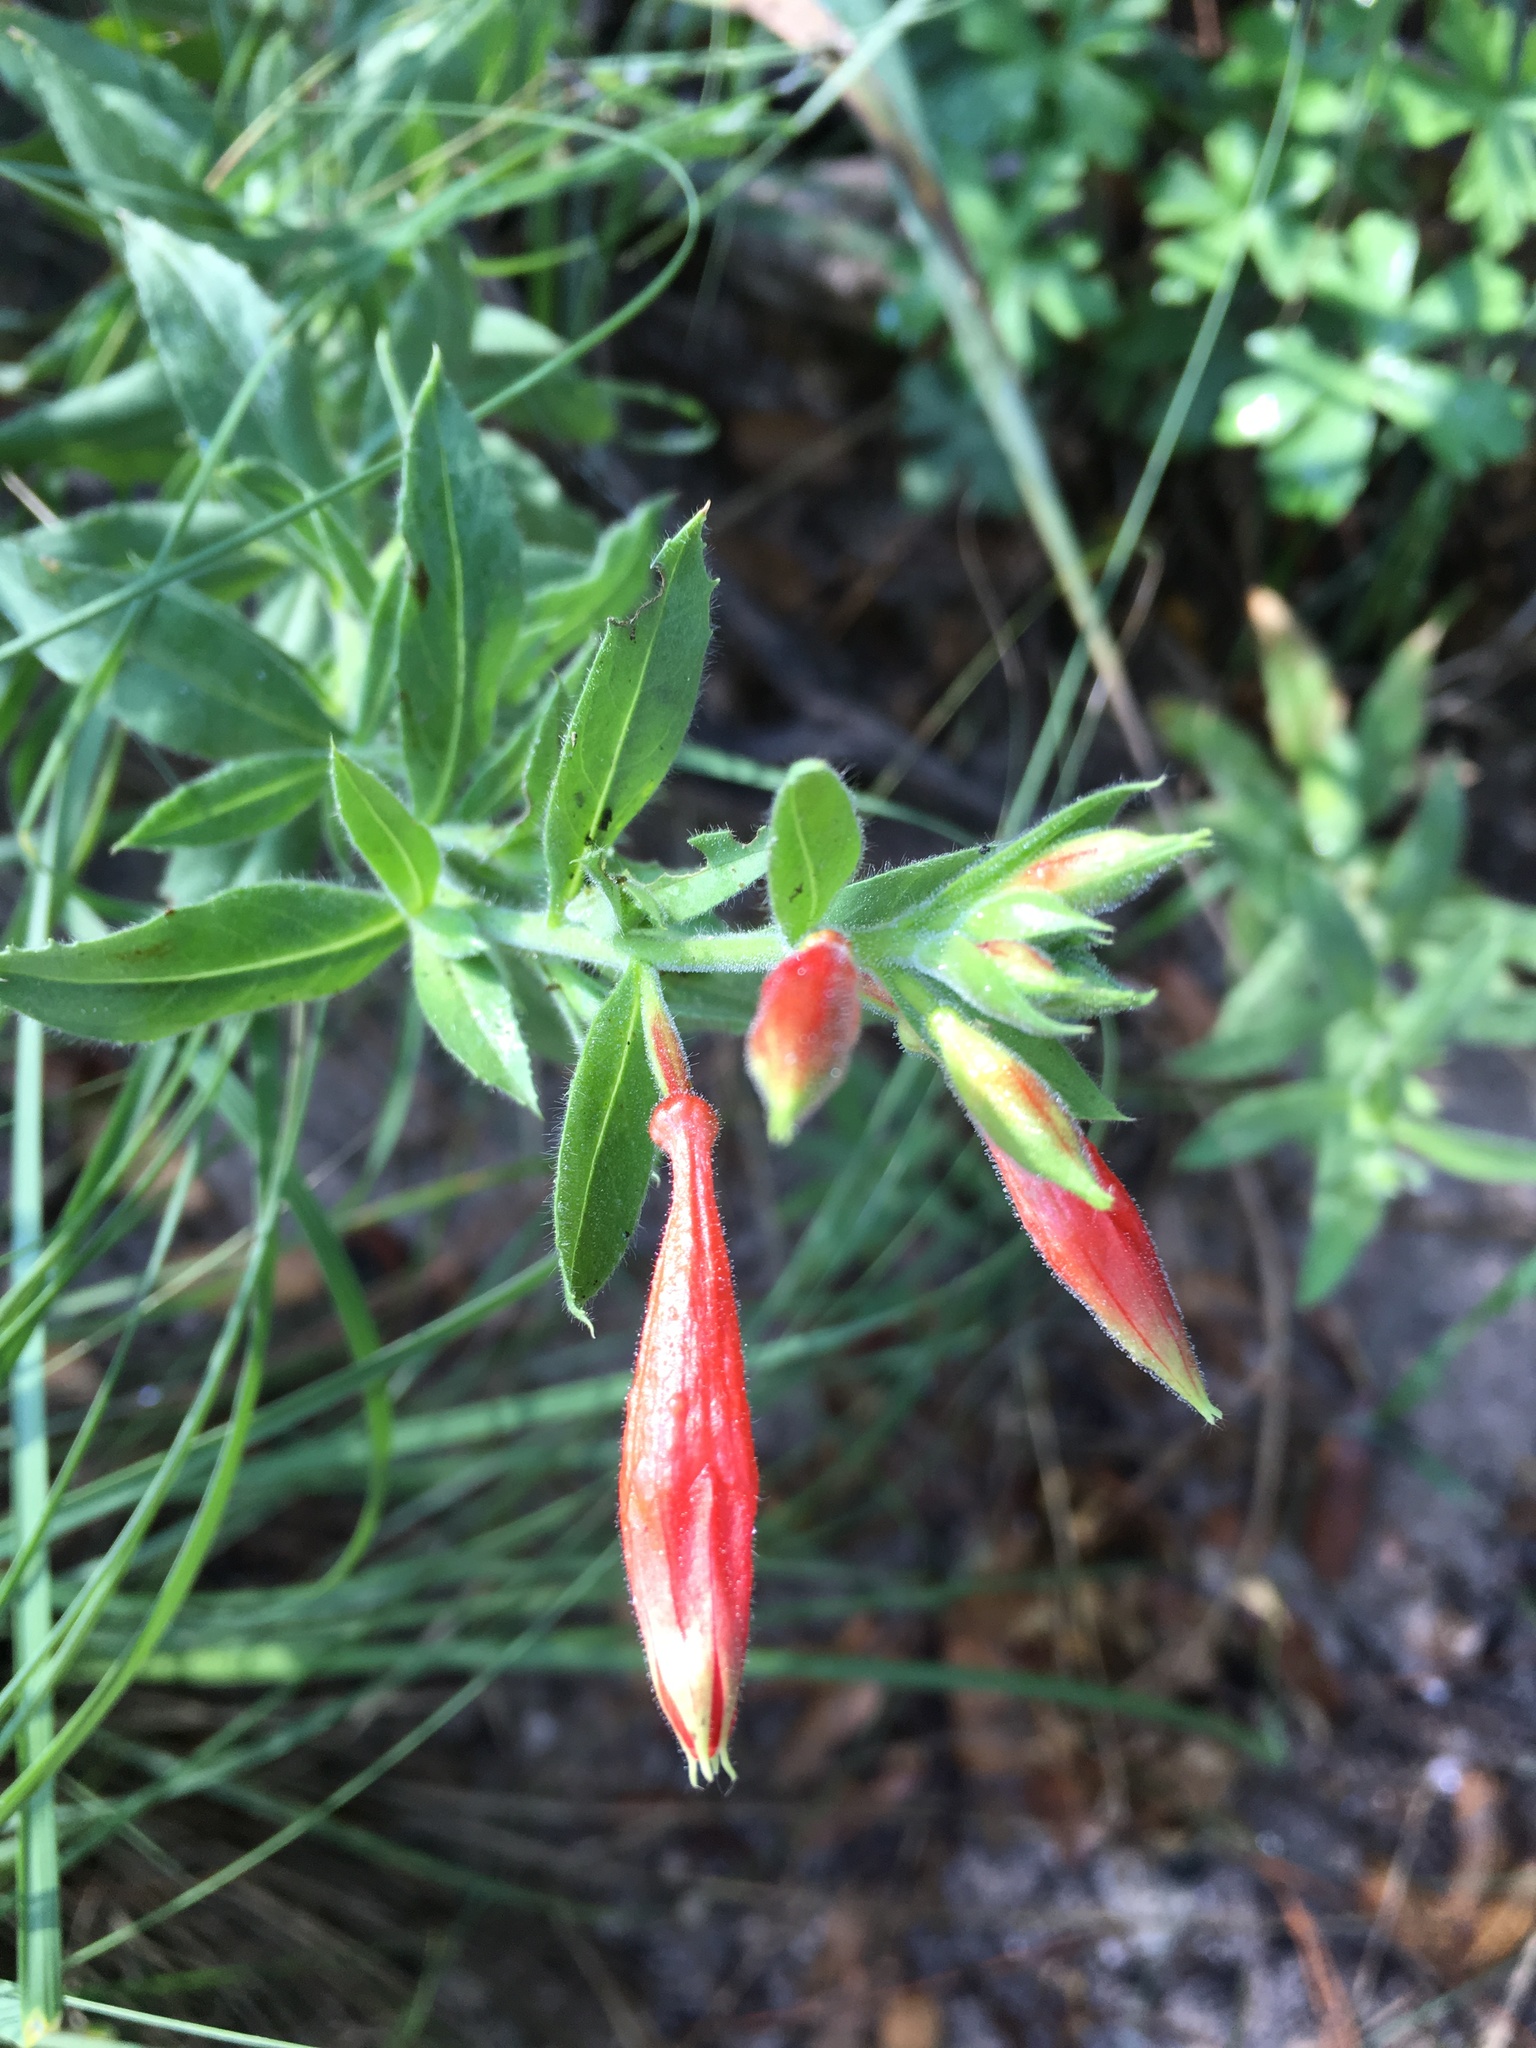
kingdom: Plantae
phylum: Tracheophyta
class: Magnoliopsida
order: Myrtales
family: Onagraceae
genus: Epilobium
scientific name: Epilobium canum
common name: California-fuchsia
